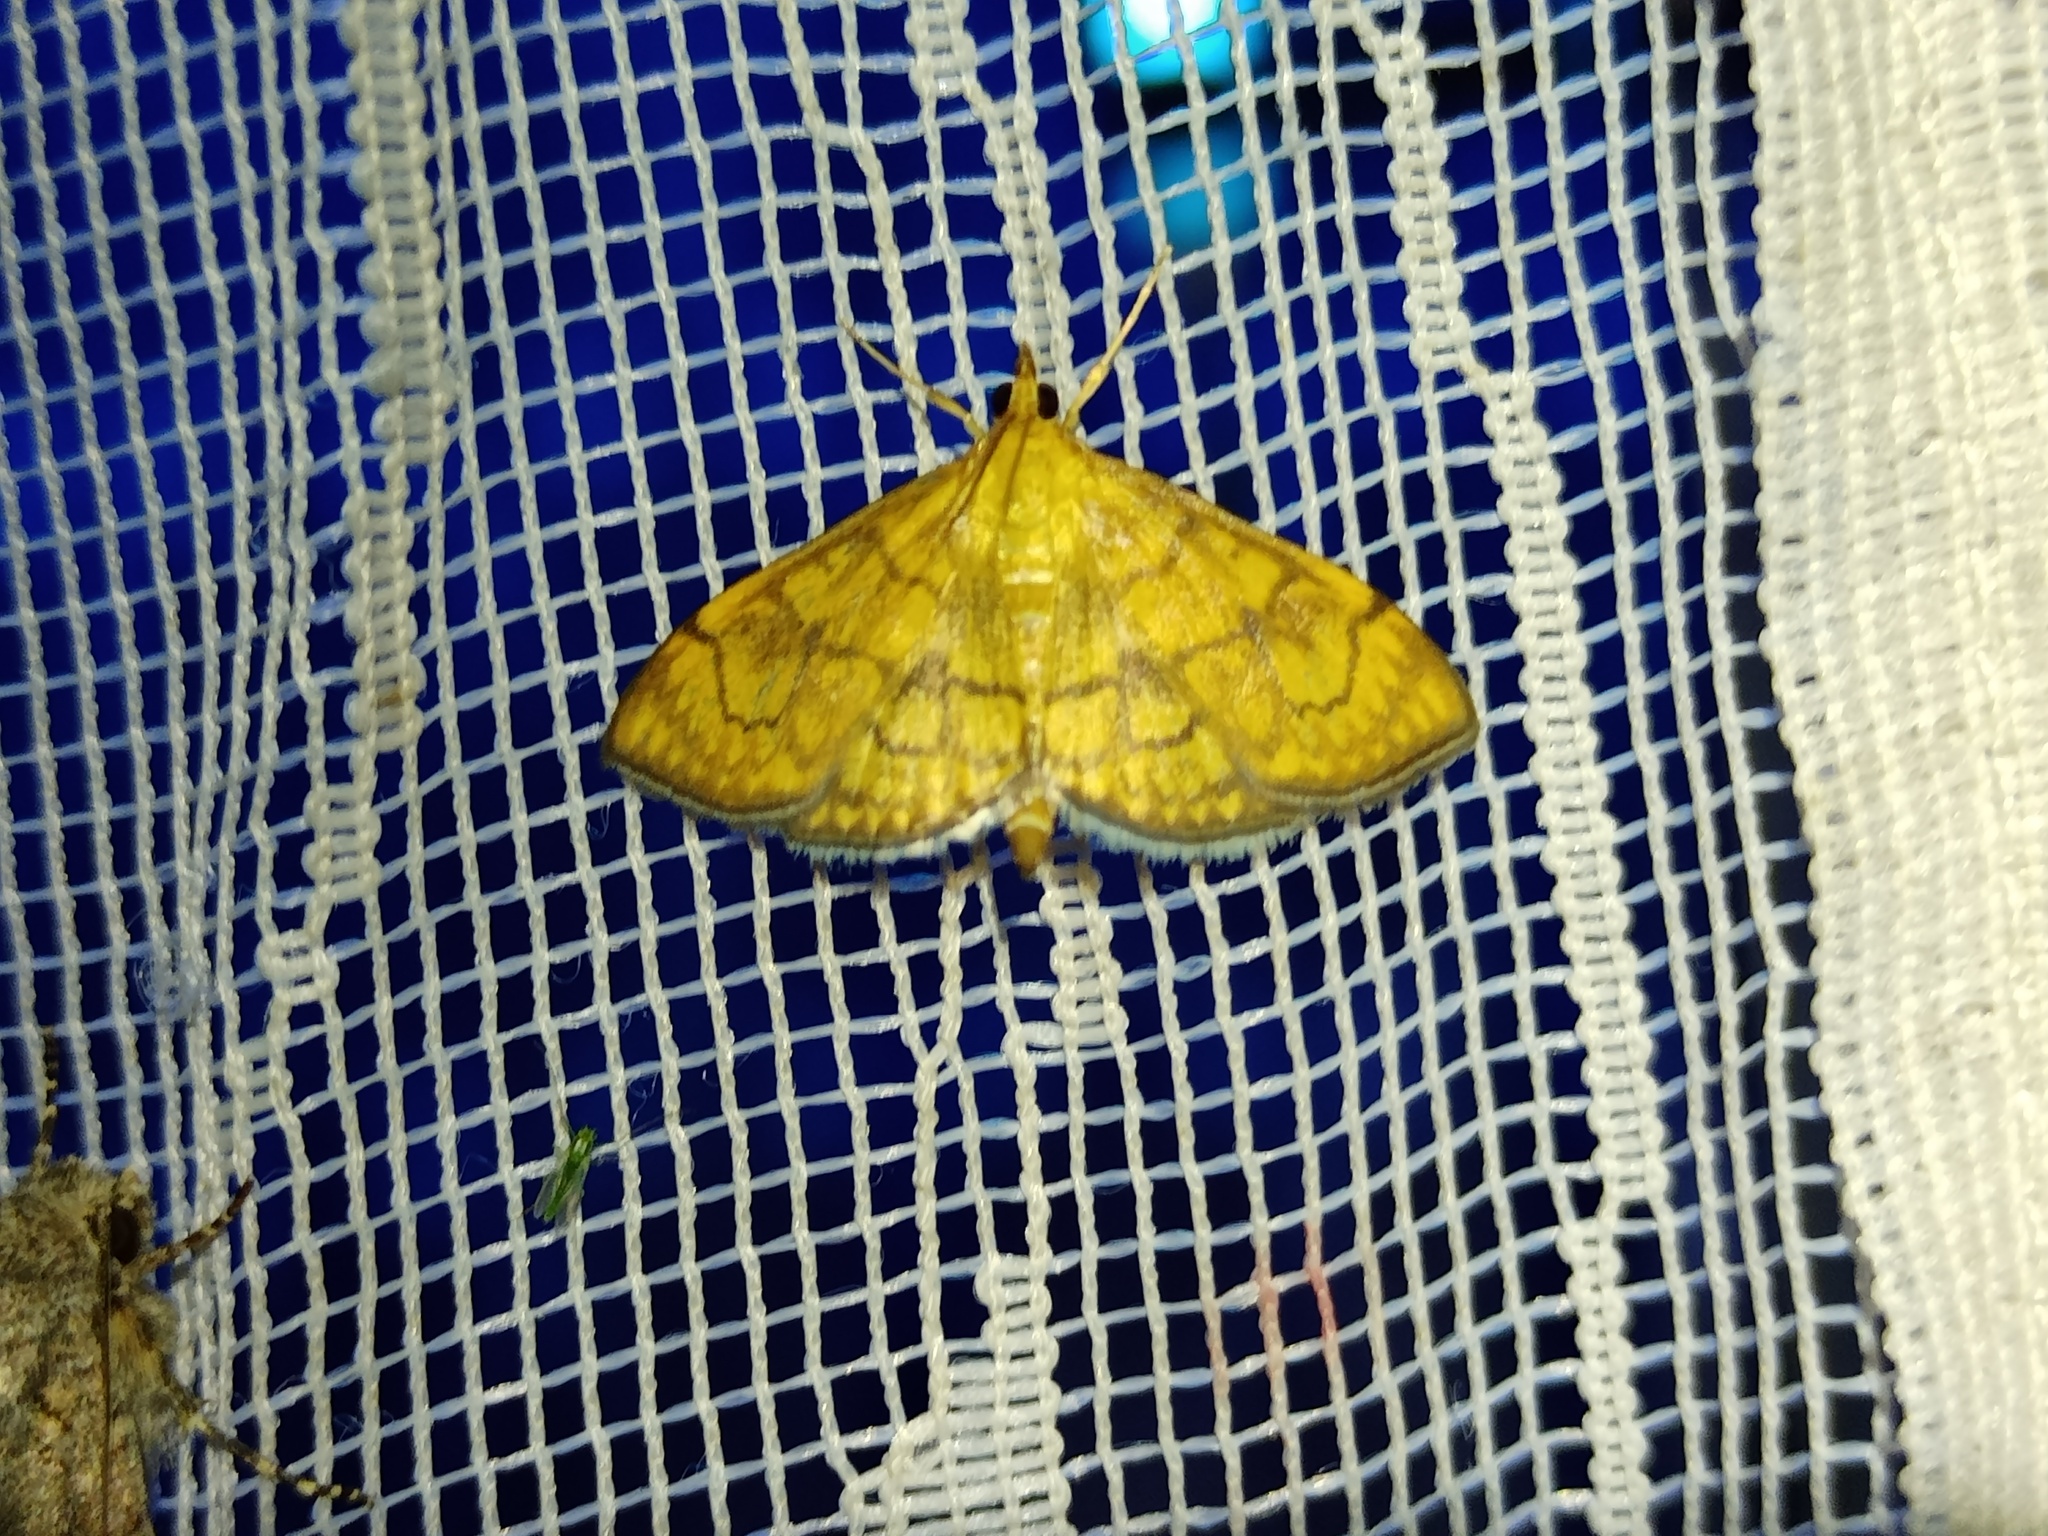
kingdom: Animalia
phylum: Arthropoda
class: Insecta
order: Lepidoptera
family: Crambidae
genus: Anania
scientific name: Anania verbascalis
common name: Golden pearl
